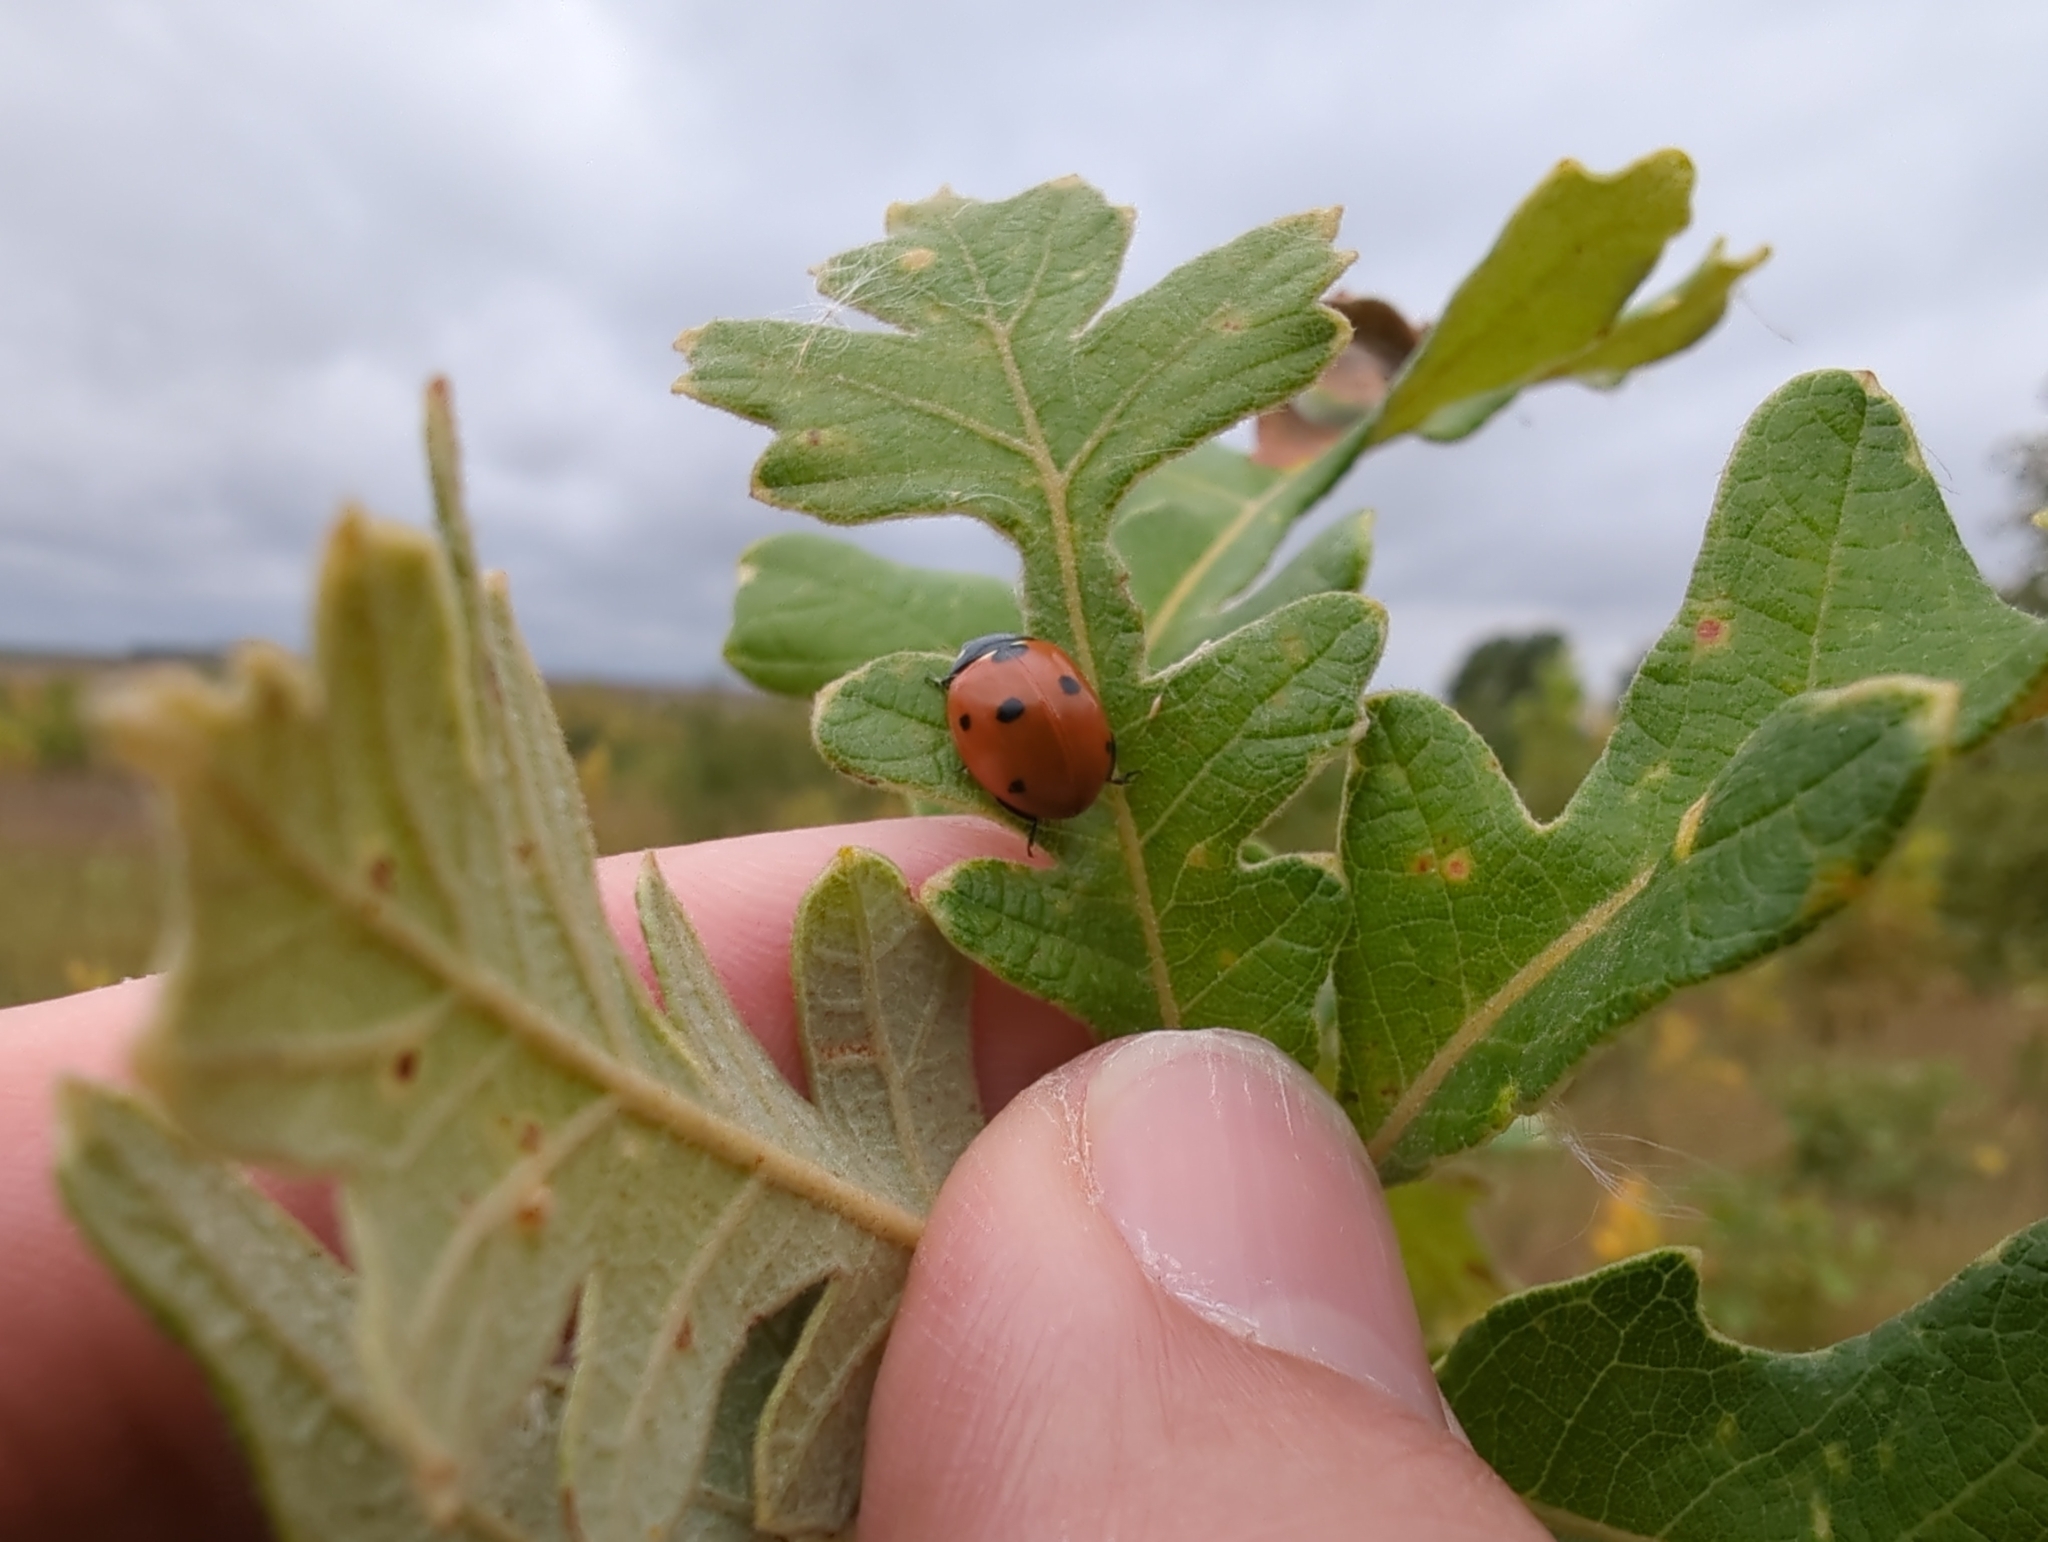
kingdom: Animalia
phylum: Arthropoda
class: Insecta
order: Coleoptera
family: Coccinellidae
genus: Coccinella
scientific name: Coccinella septempunctata
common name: Sevenspotted lady beetle
